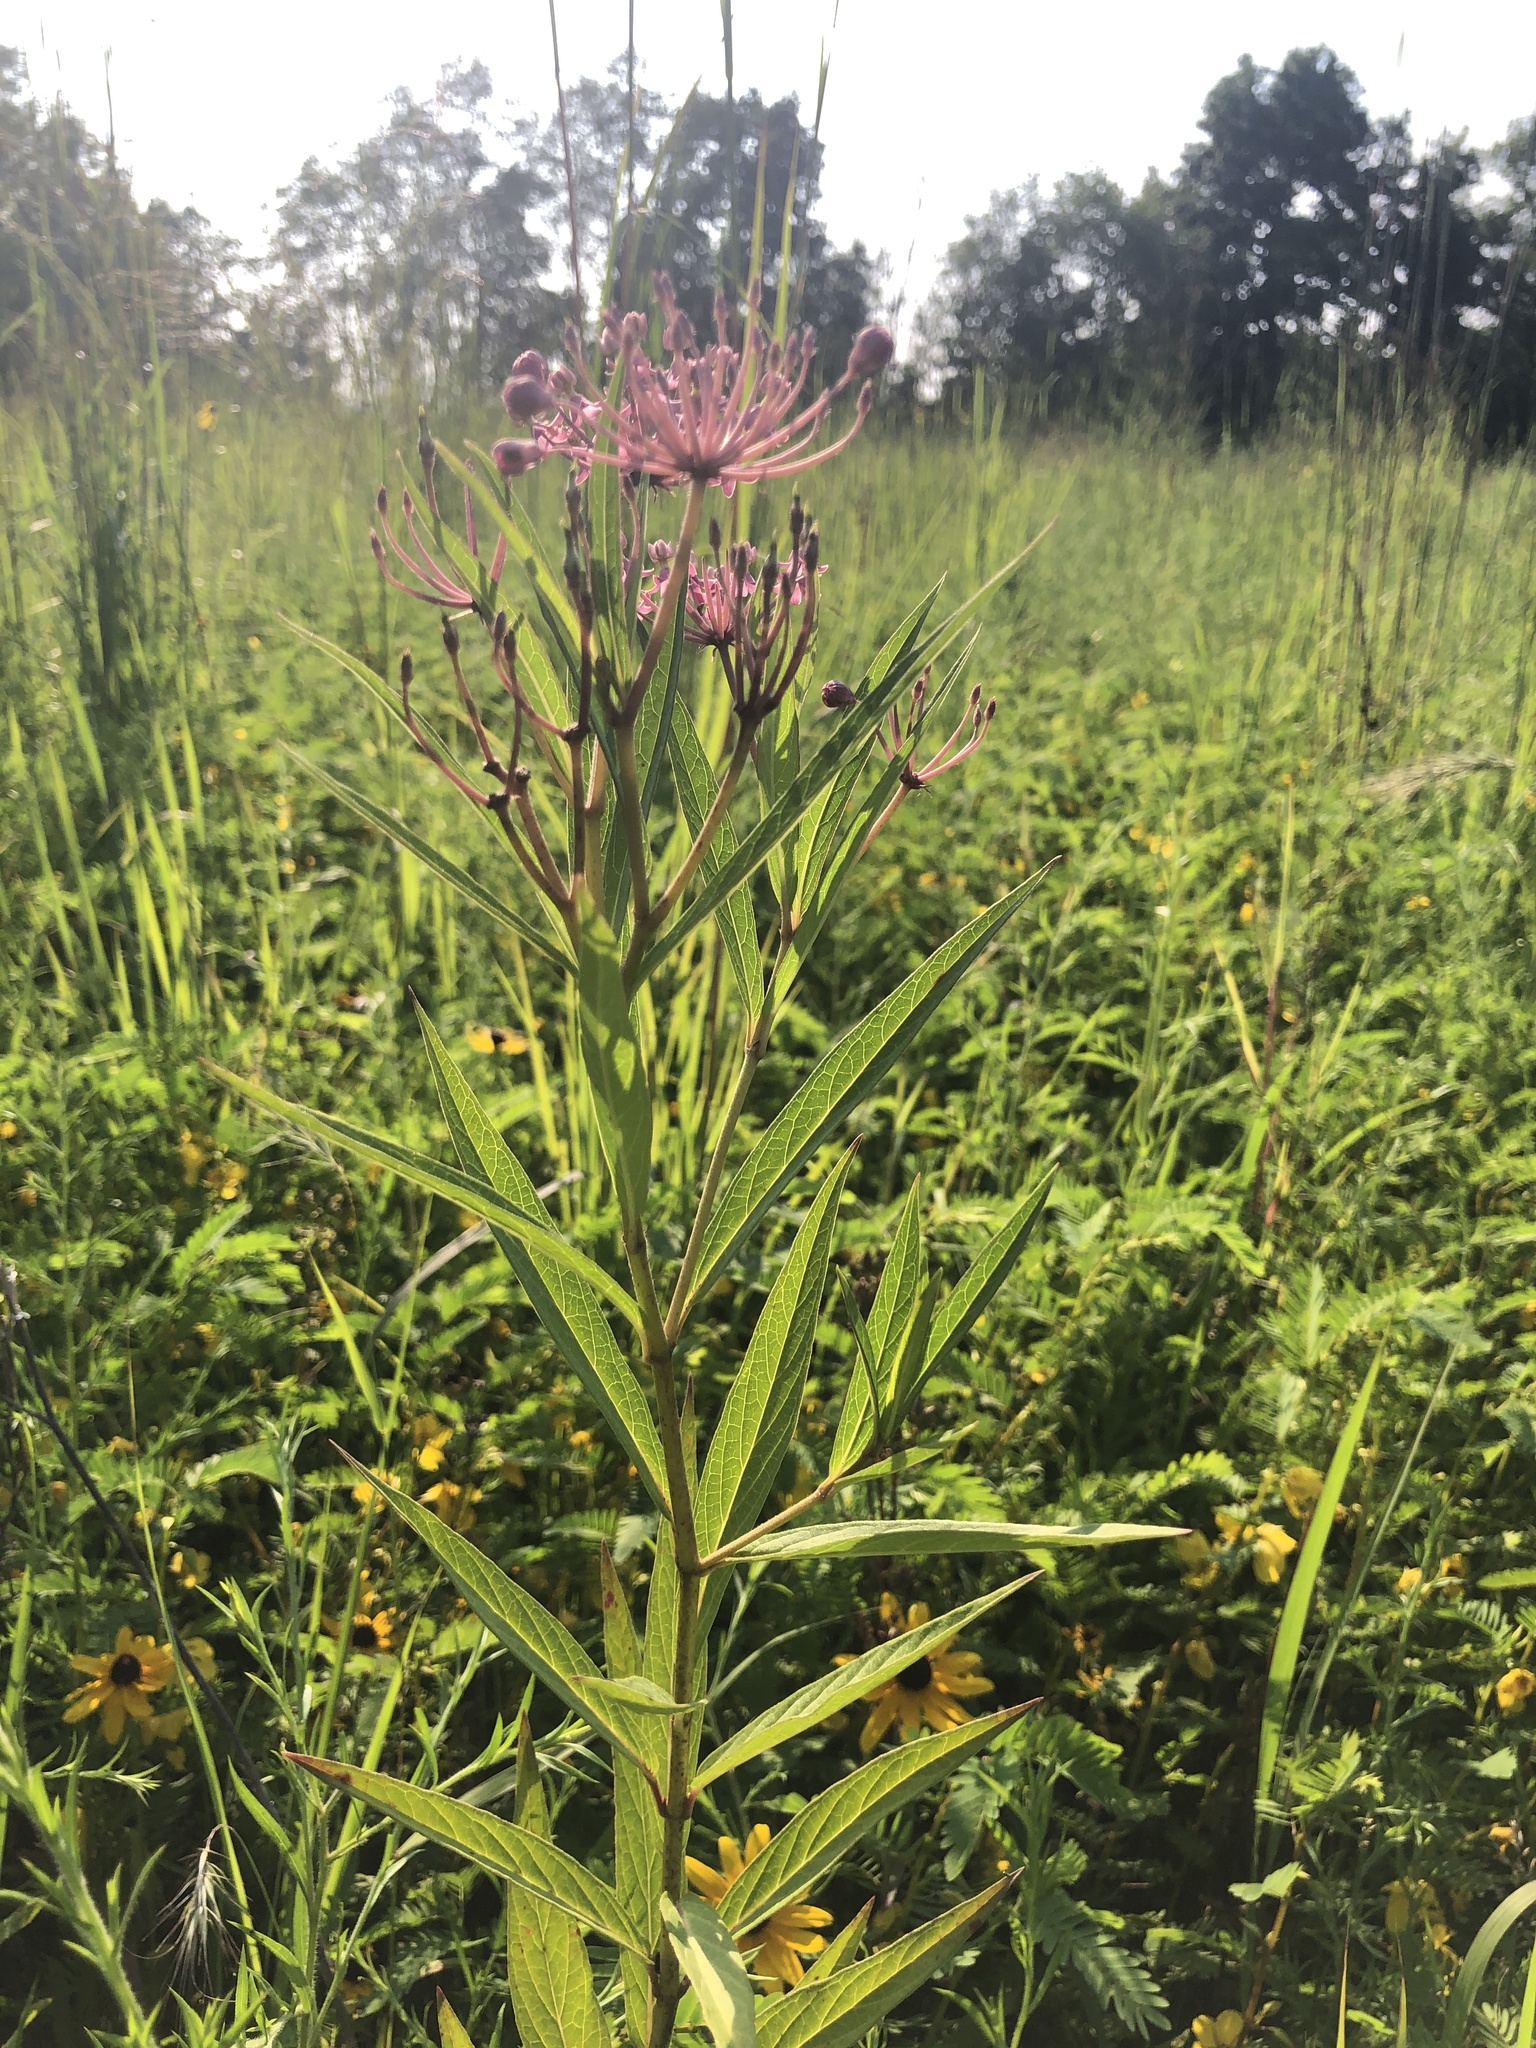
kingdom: Plantae
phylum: Tracheophyta
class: Magnoliopsida
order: Gentianales
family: Apocynaceae
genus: Asclepias
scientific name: Asclepias incarnata
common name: Swamp milkweed
